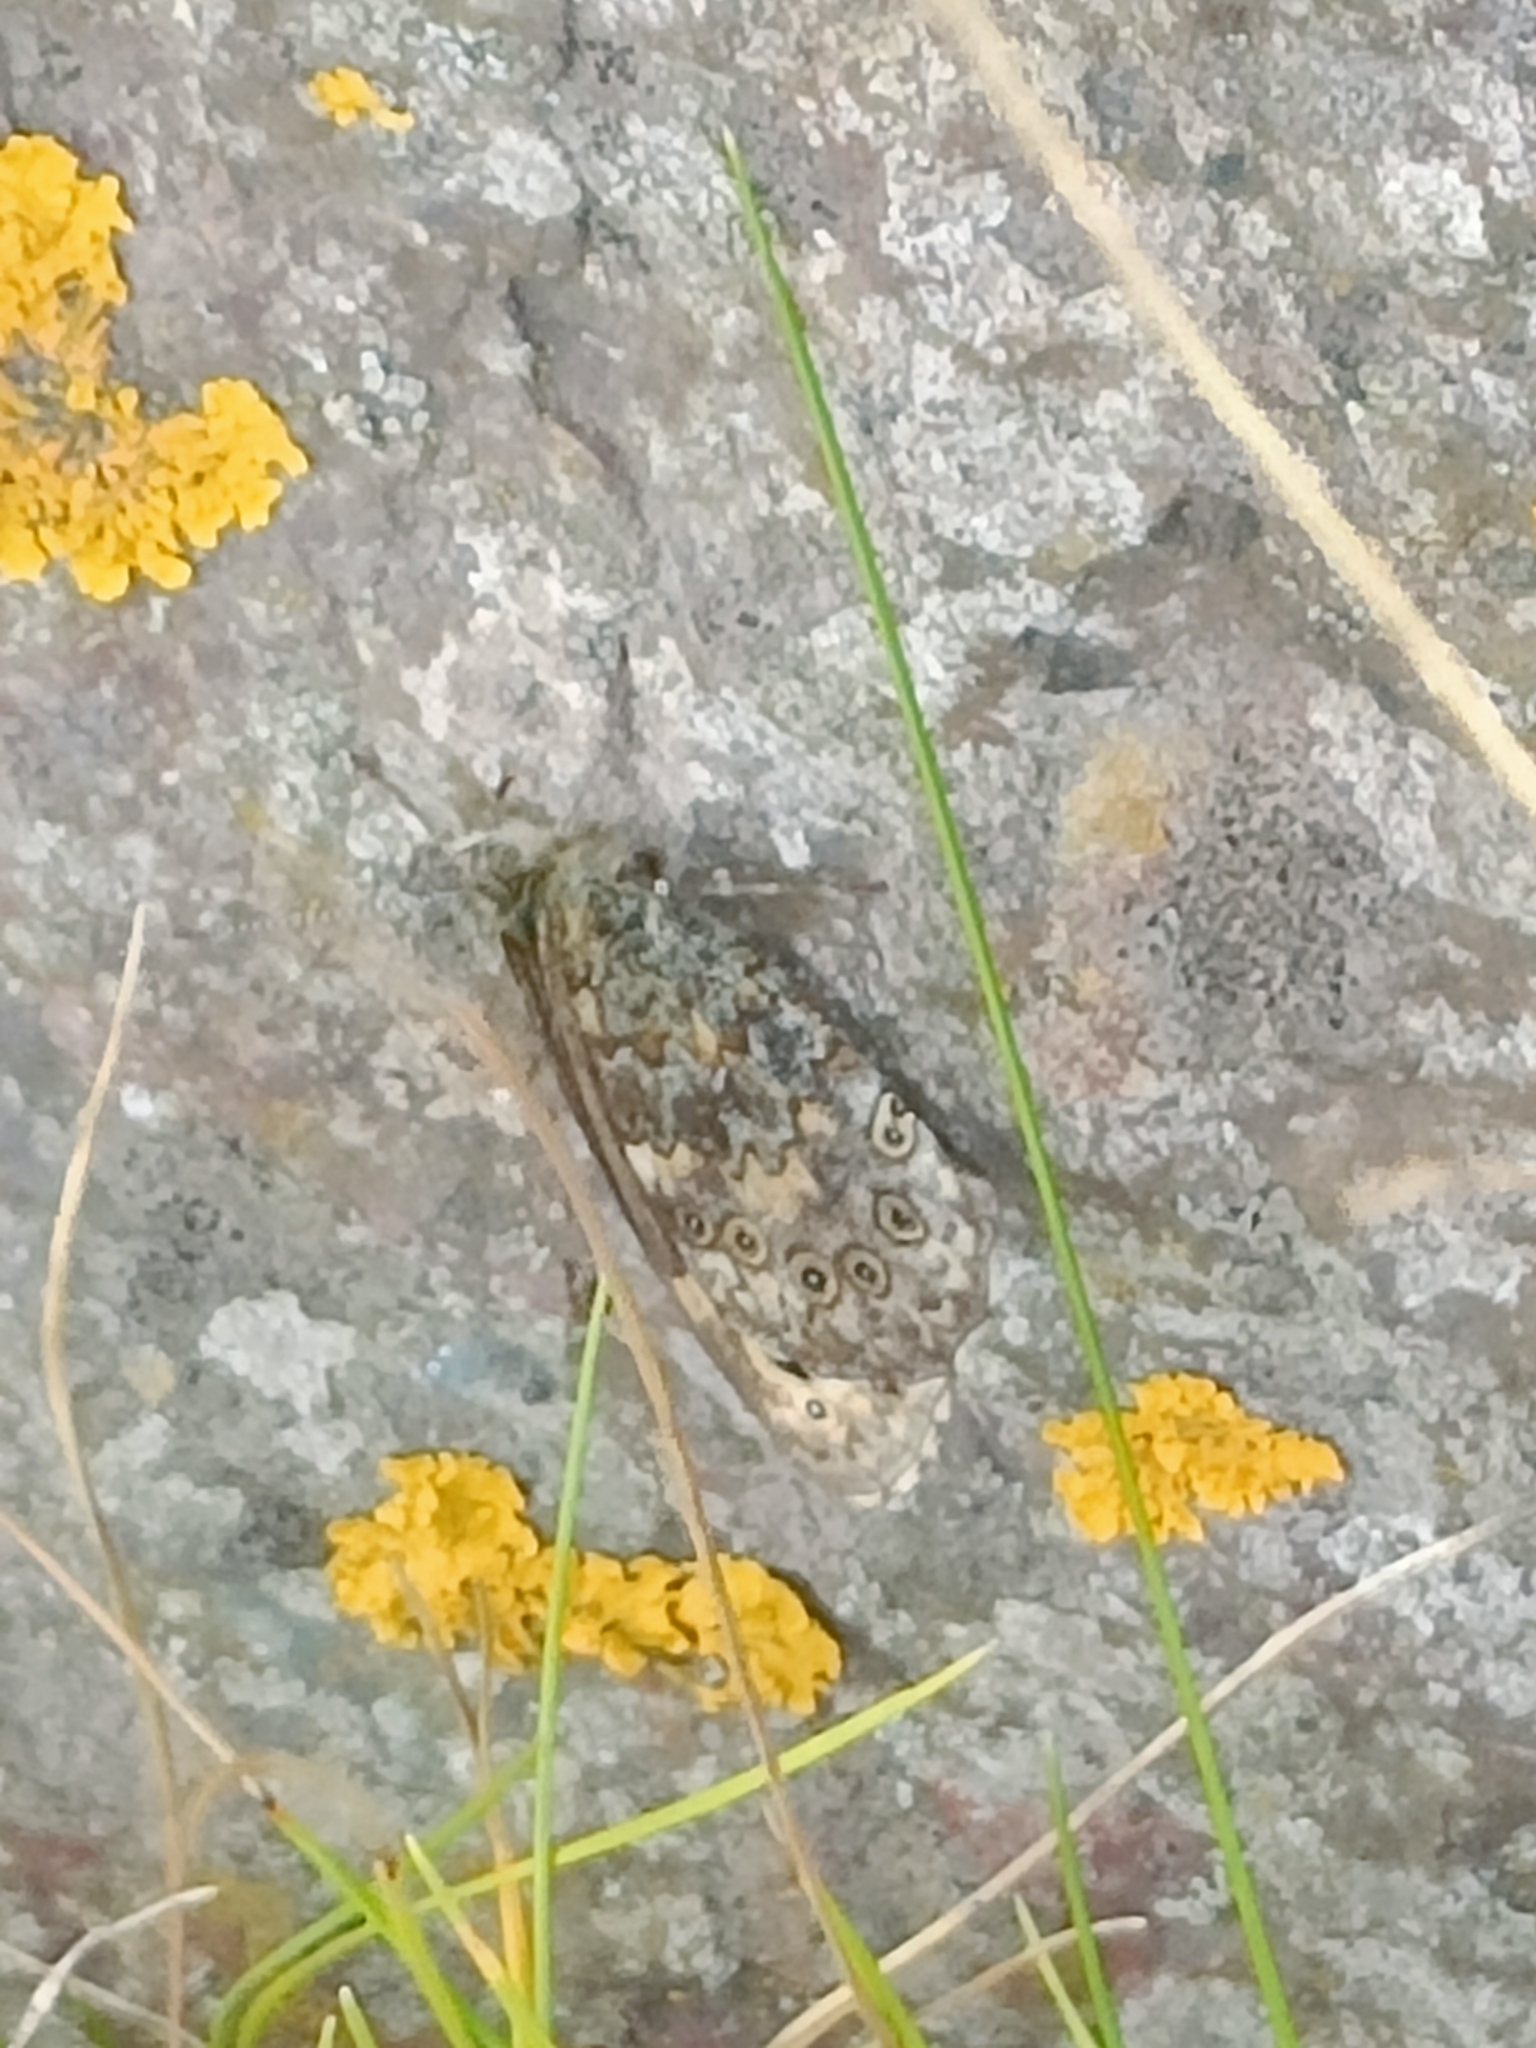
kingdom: Animalia
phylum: Arthropoda
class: Insecta
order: Lepidoptera
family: Nymphalidae
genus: Pararge
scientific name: Pararge Lasiommata megera
